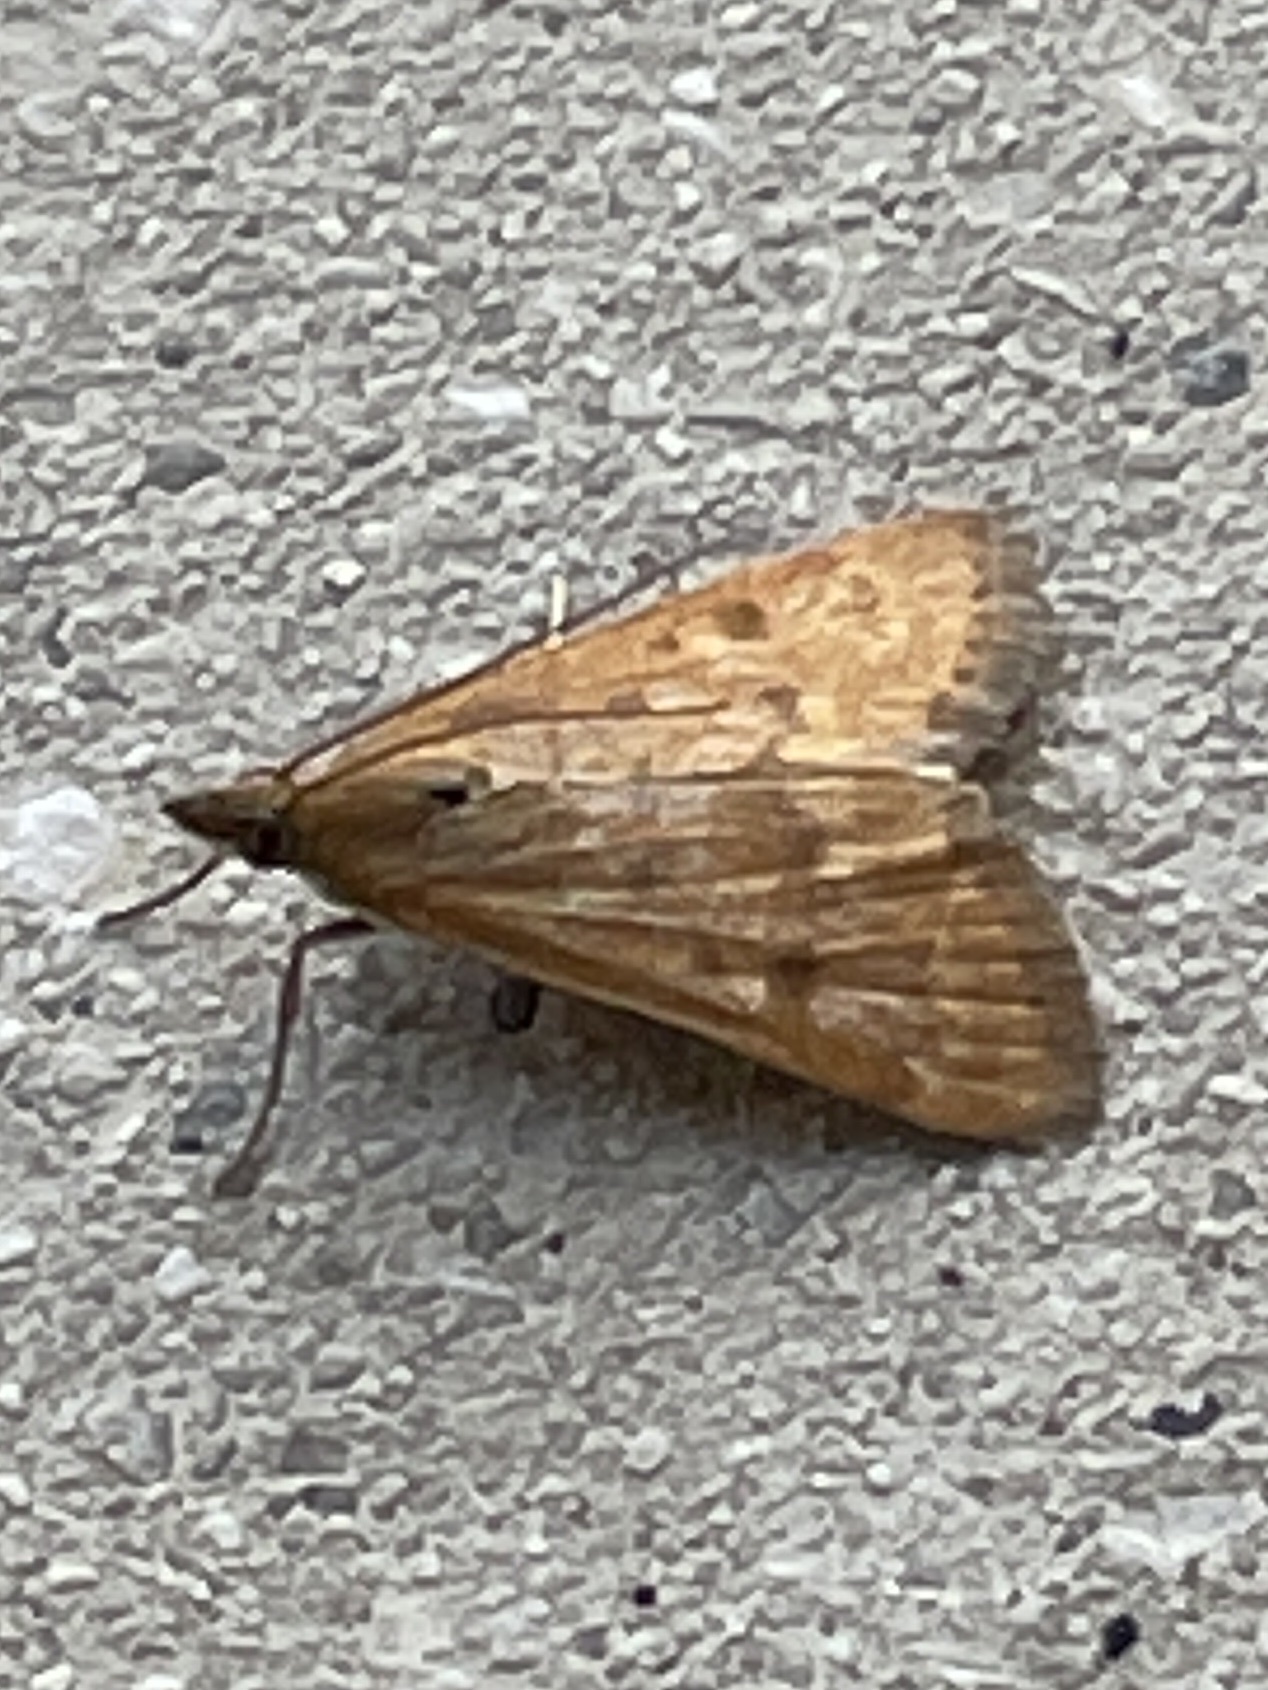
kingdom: Animalia
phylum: Arthropoda
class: Insecta
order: Lepidoptera
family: Crambidae
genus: Achyra
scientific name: Achyra rantalis
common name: Garden webworm
